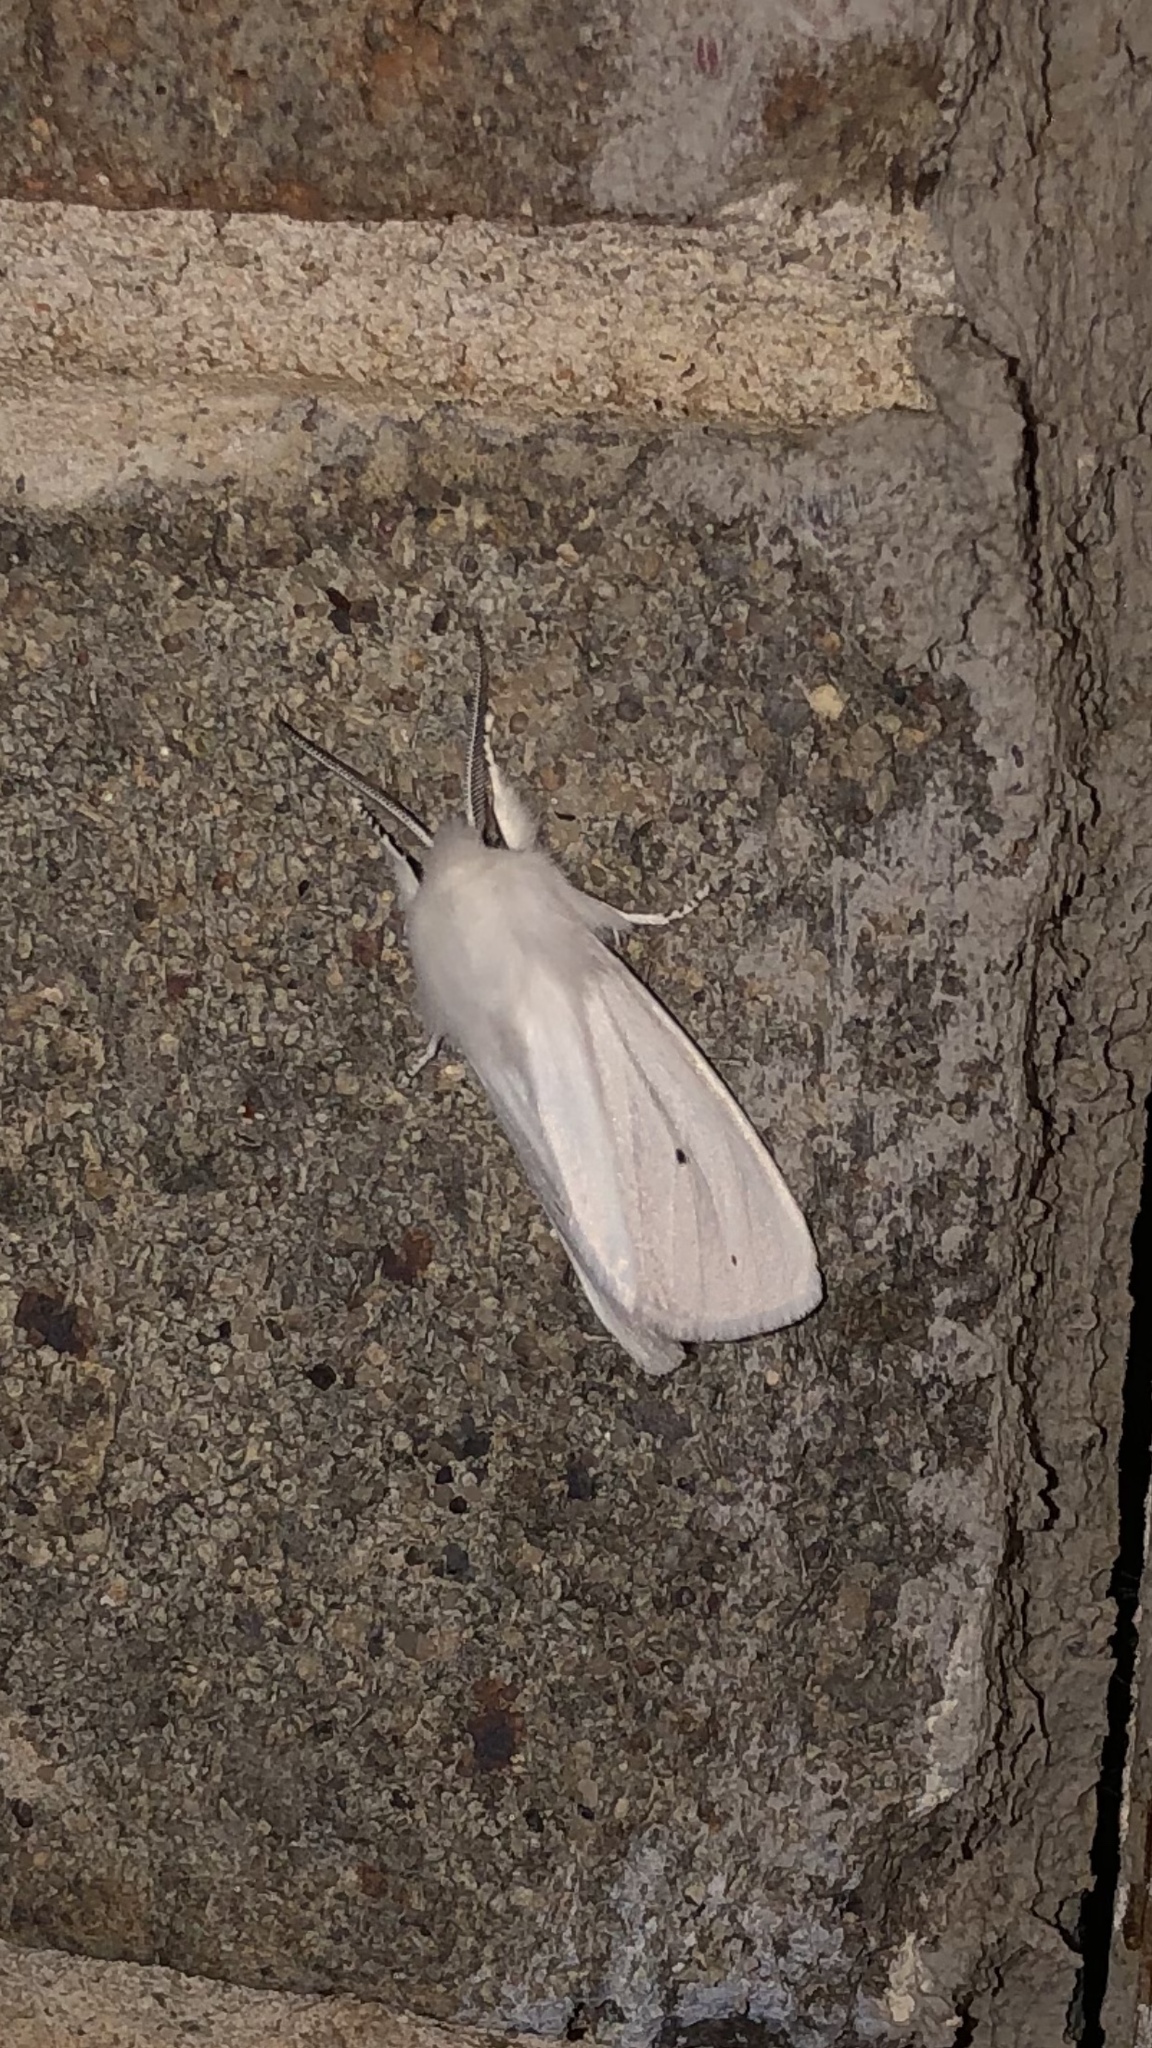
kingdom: Animalia
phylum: Arthropoda
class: Insecta
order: Lepidoptera
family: Erebidae
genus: Spilosoma
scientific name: Spilosoma virginica
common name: Virginia tiger moth
